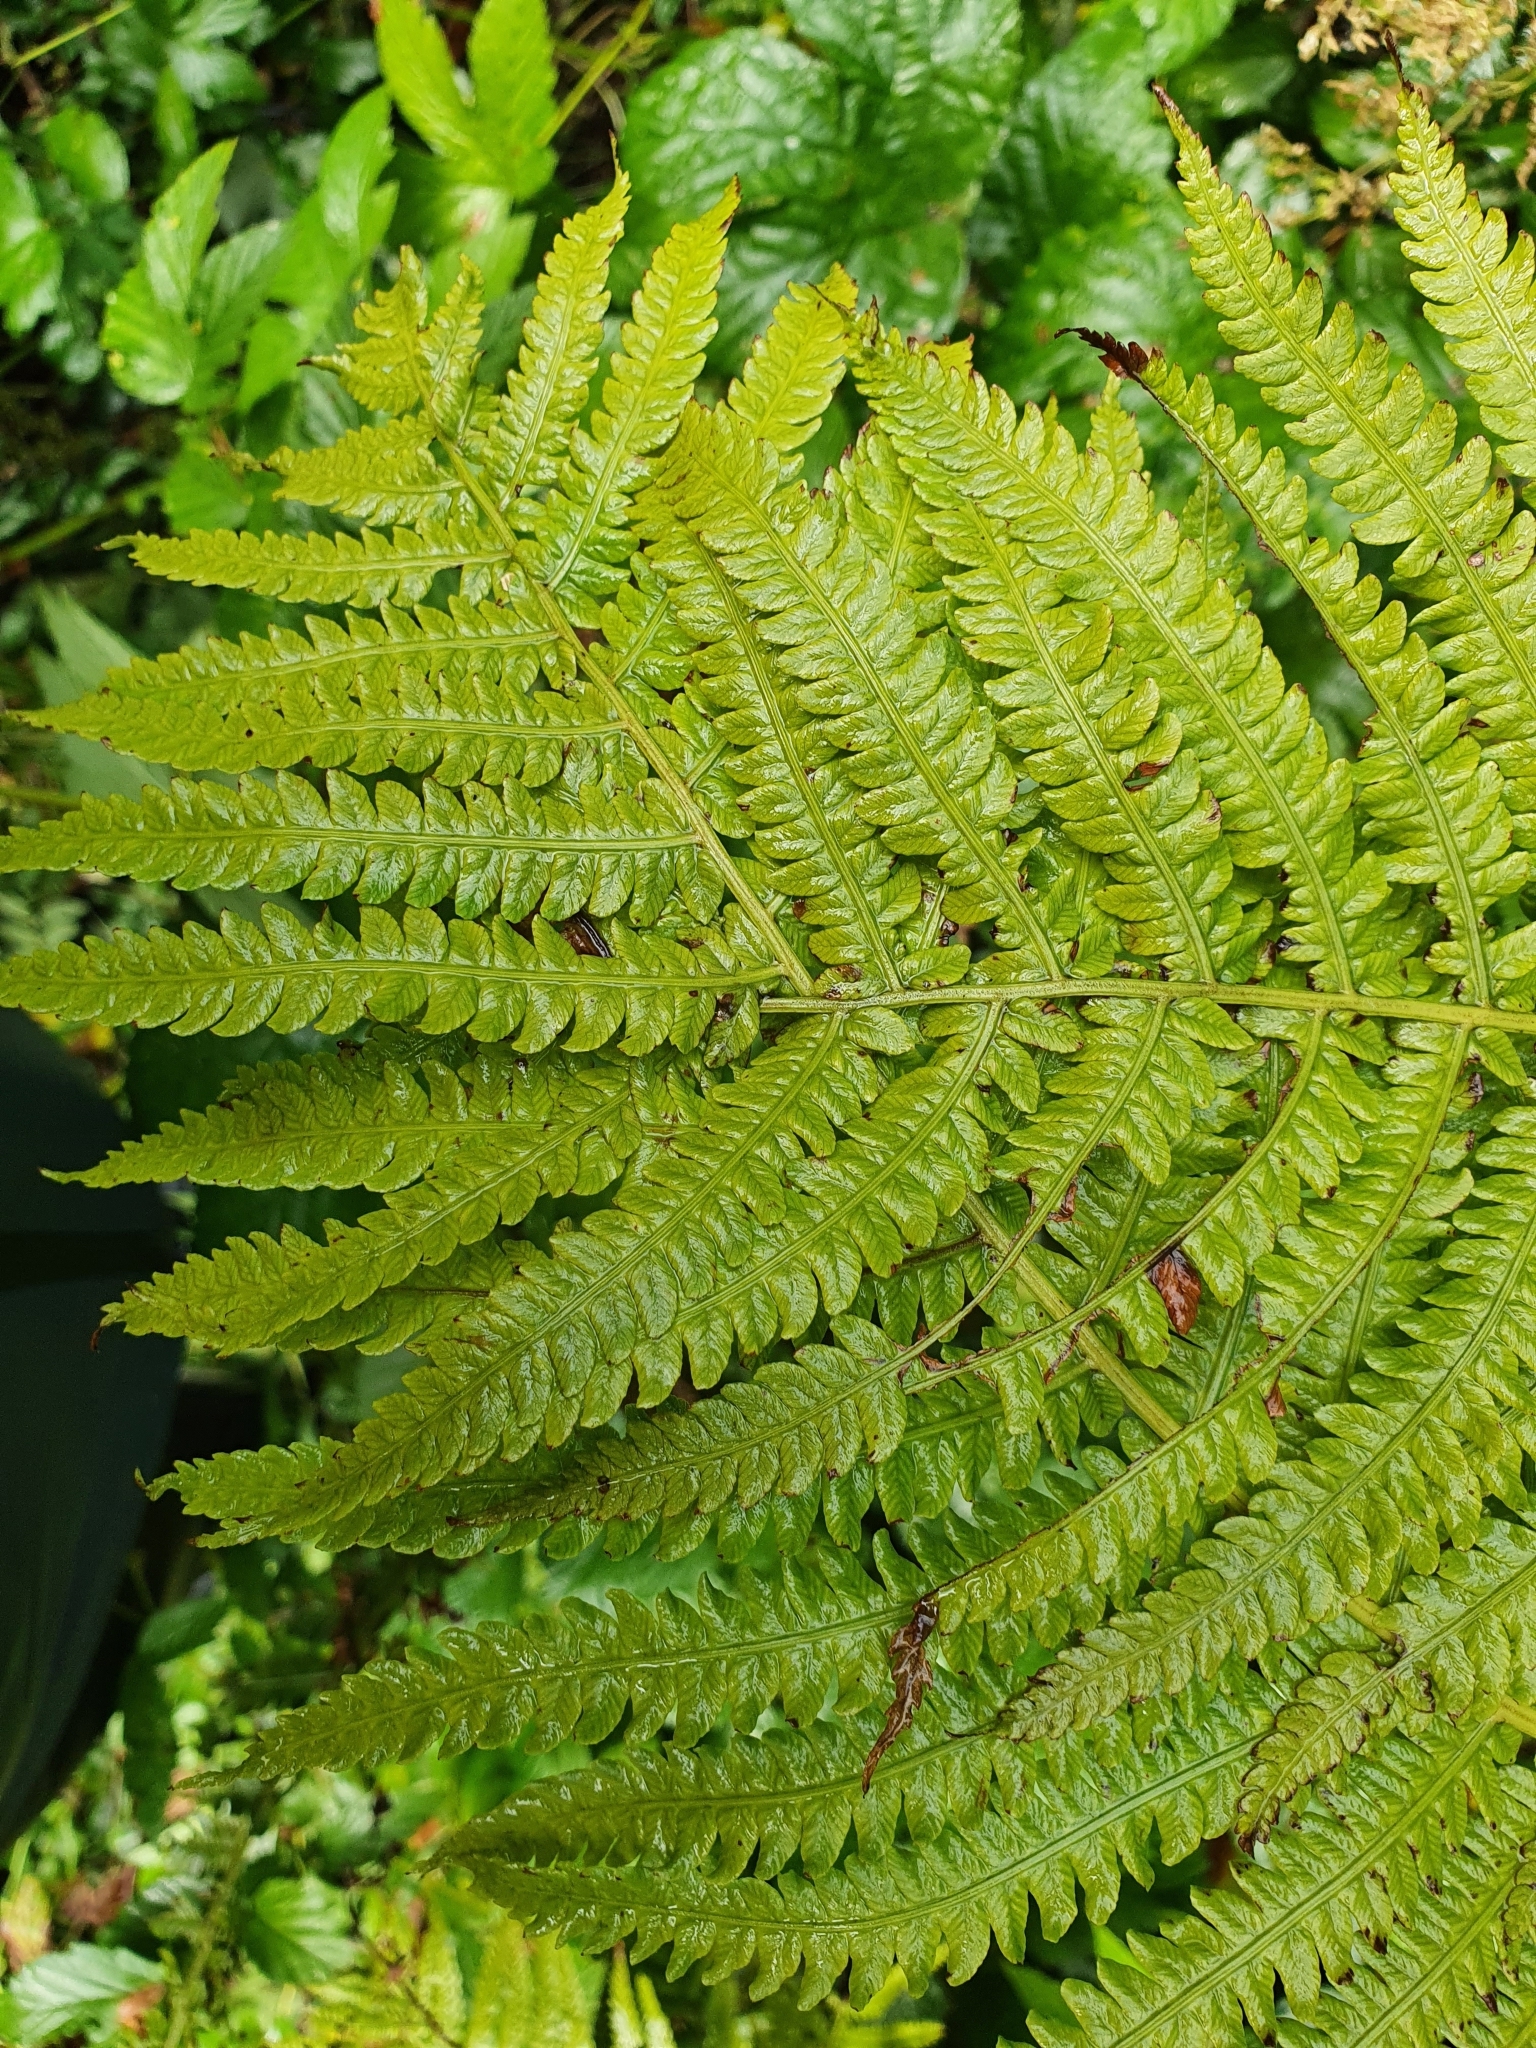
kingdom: Plantae
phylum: Tracheophyta
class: Polypodiopsida
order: Polypodiales
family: Onocleaceae
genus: Matteuccia
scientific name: Matteuccia struthiopteris
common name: Ostrich fern
